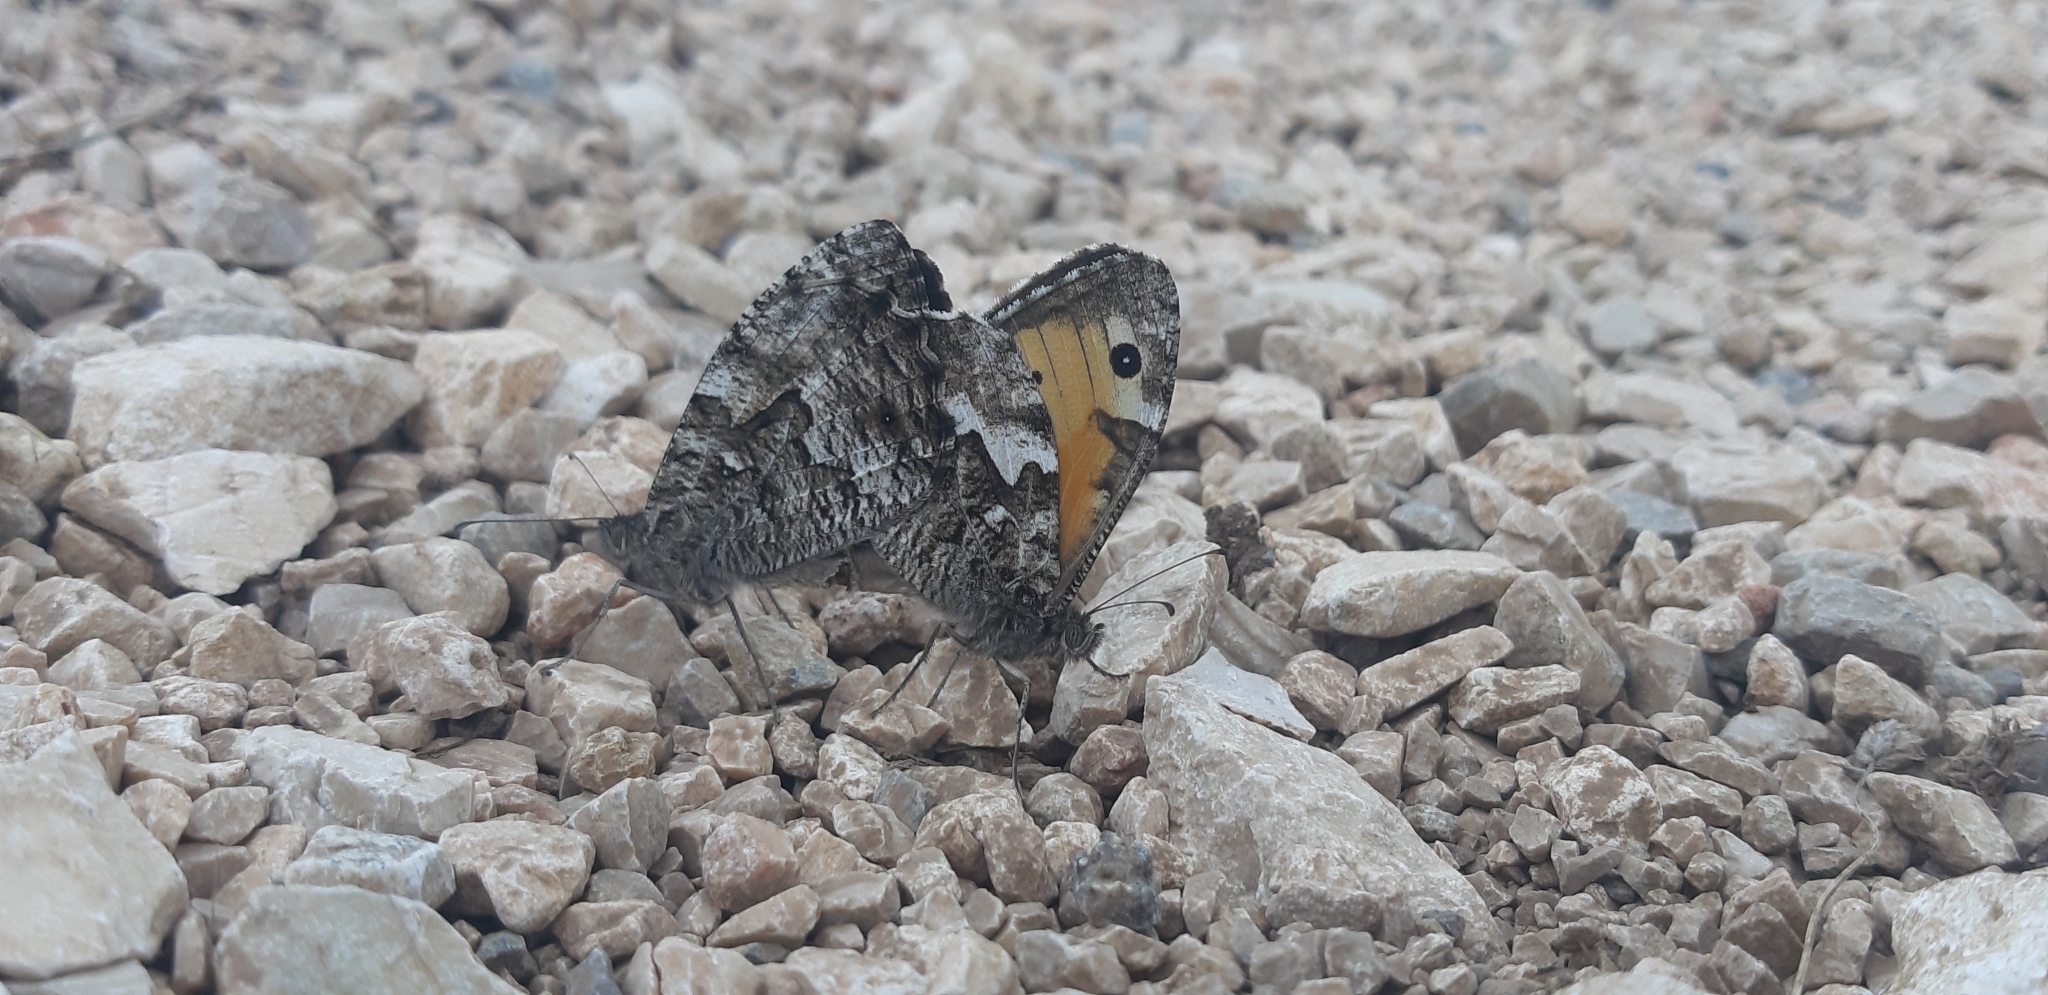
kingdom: Animalia
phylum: Arthropoda
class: Insecta
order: Lepidoptera
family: Nymphalidae
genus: Hipparchia
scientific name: Hipparchia semele
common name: Grayling
